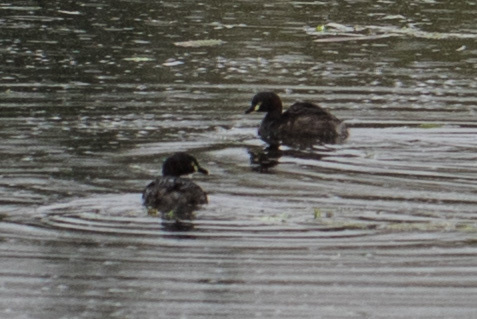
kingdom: Animalia
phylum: Chordata
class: Aves
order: Podicipediformes
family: Podicipedidae
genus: Tachybaptus
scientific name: Tachybaptus novaehollandiae
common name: Australasian grebe
